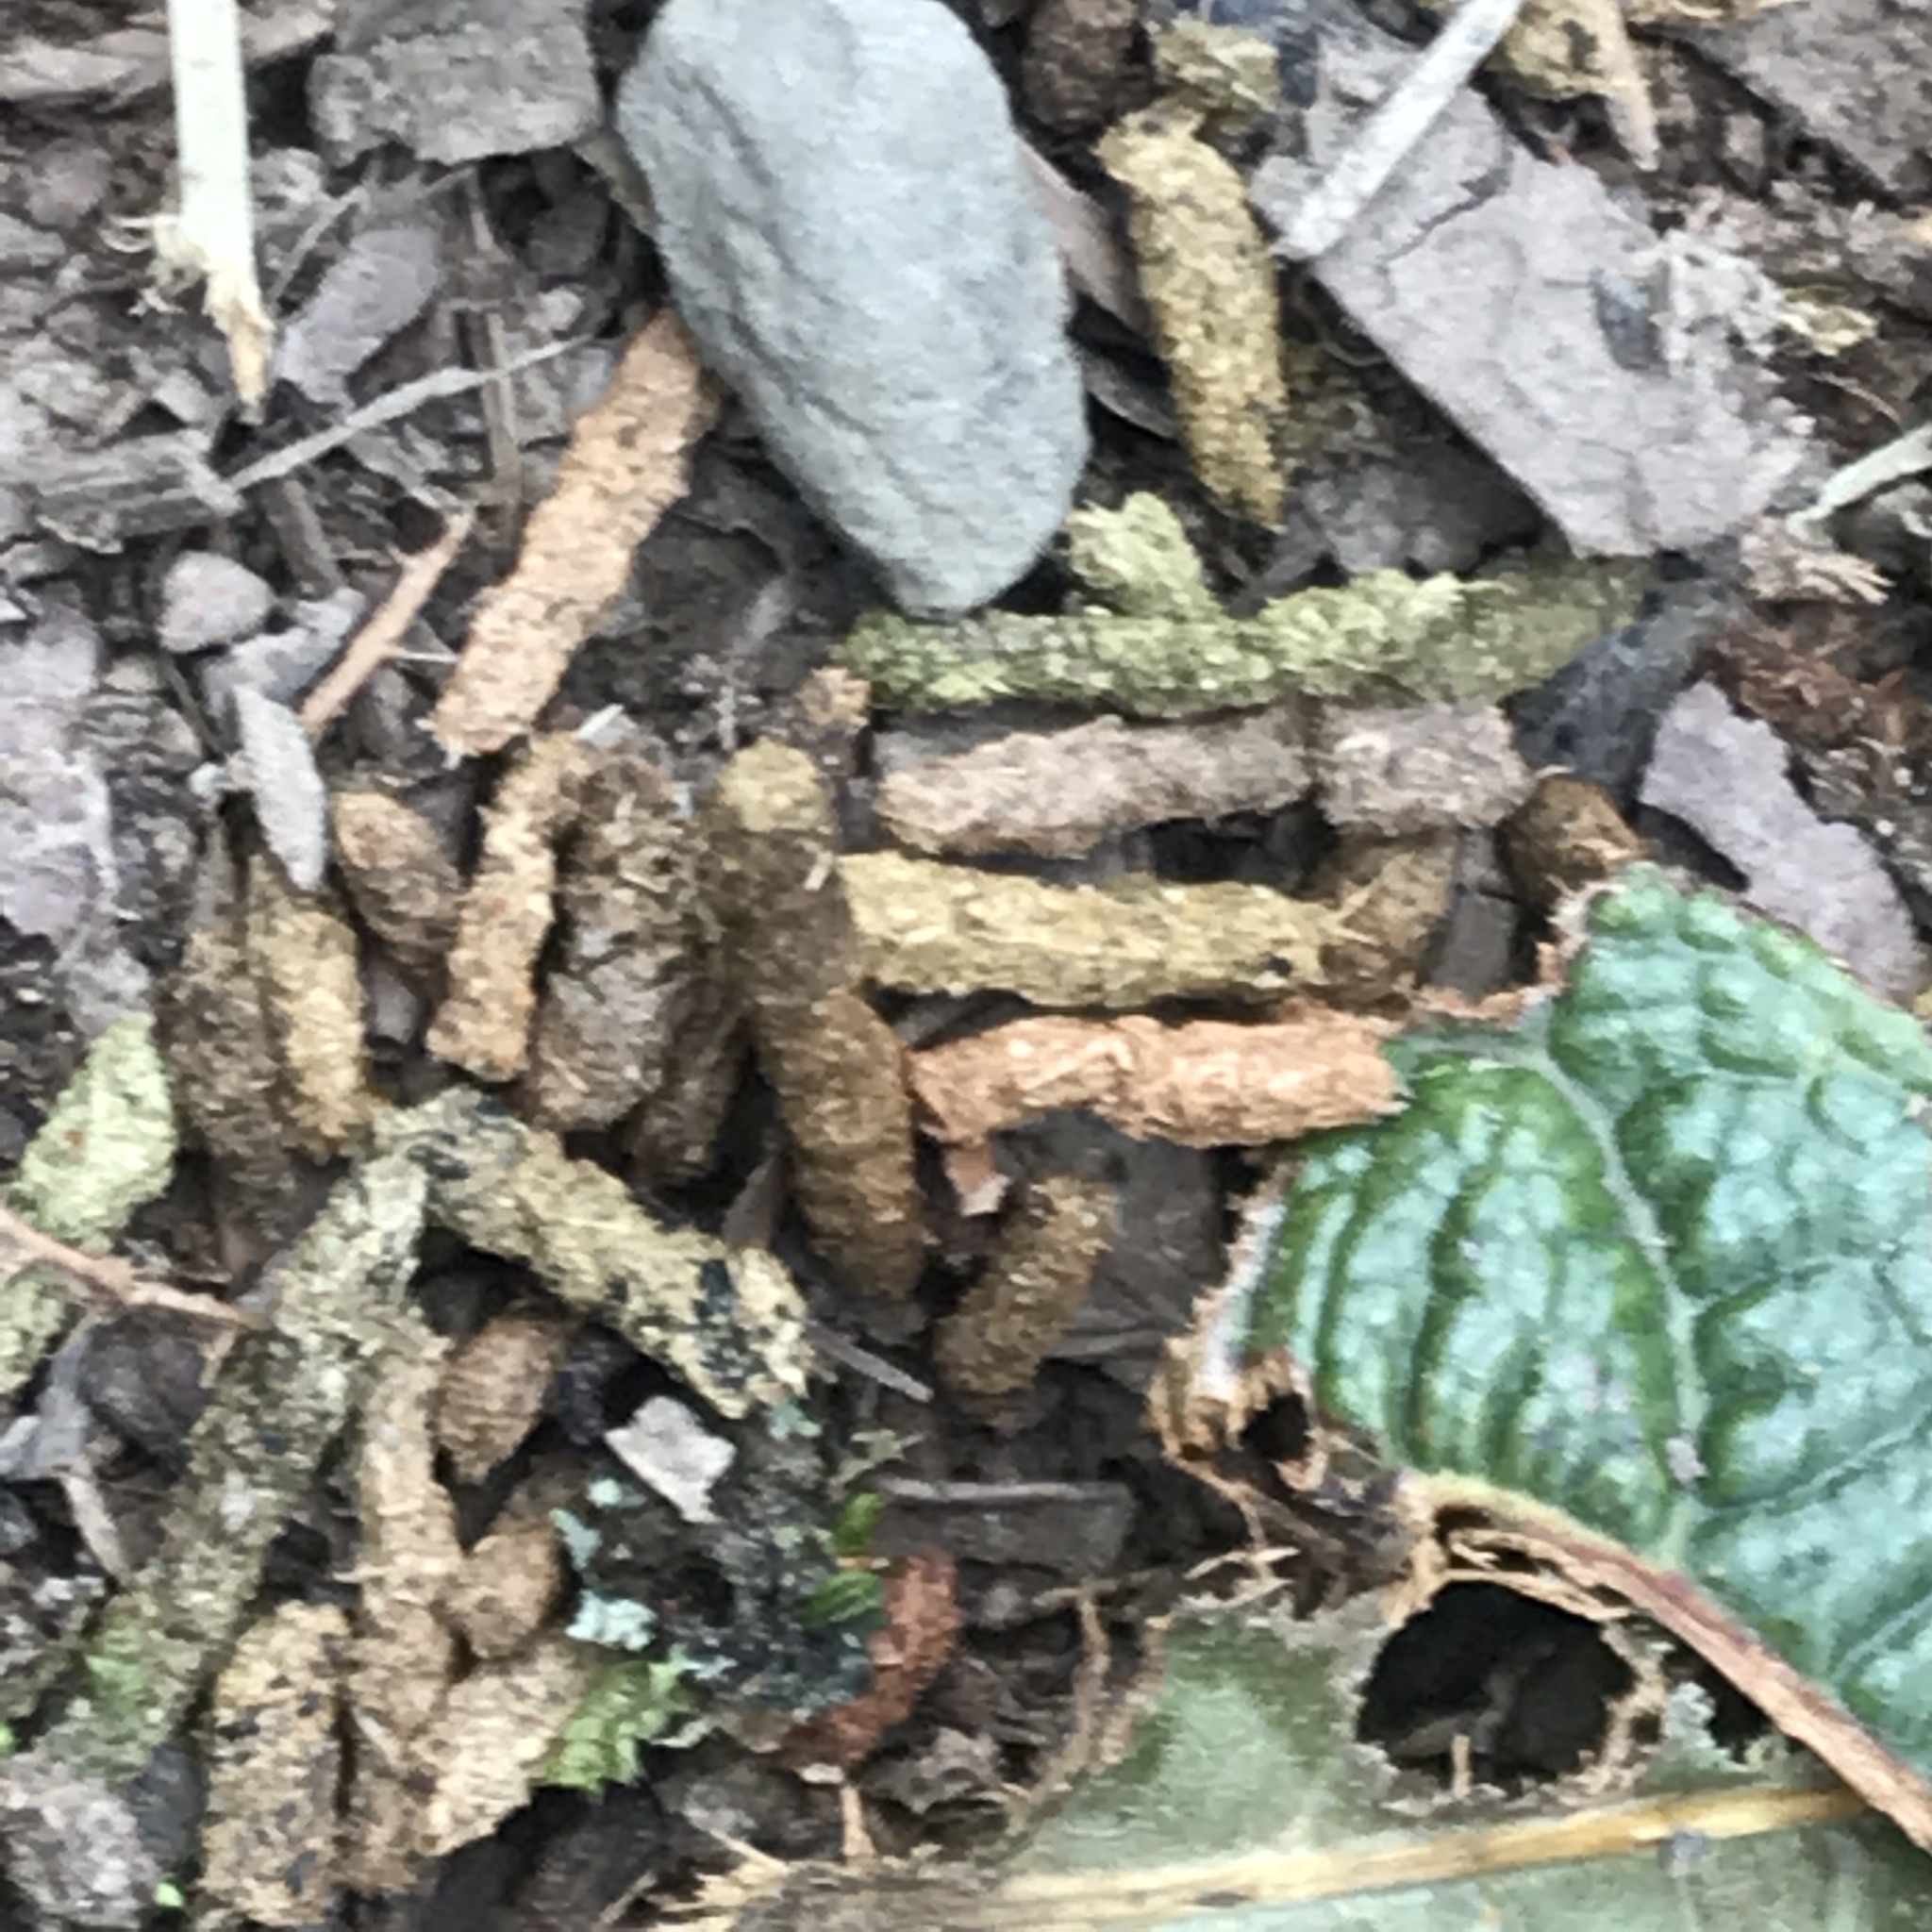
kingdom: Animalia
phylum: Arthropoda
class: Insecta
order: Orthoptera
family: Tettigoniidae
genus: Pterophylla
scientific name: Pterophylla beltrani
